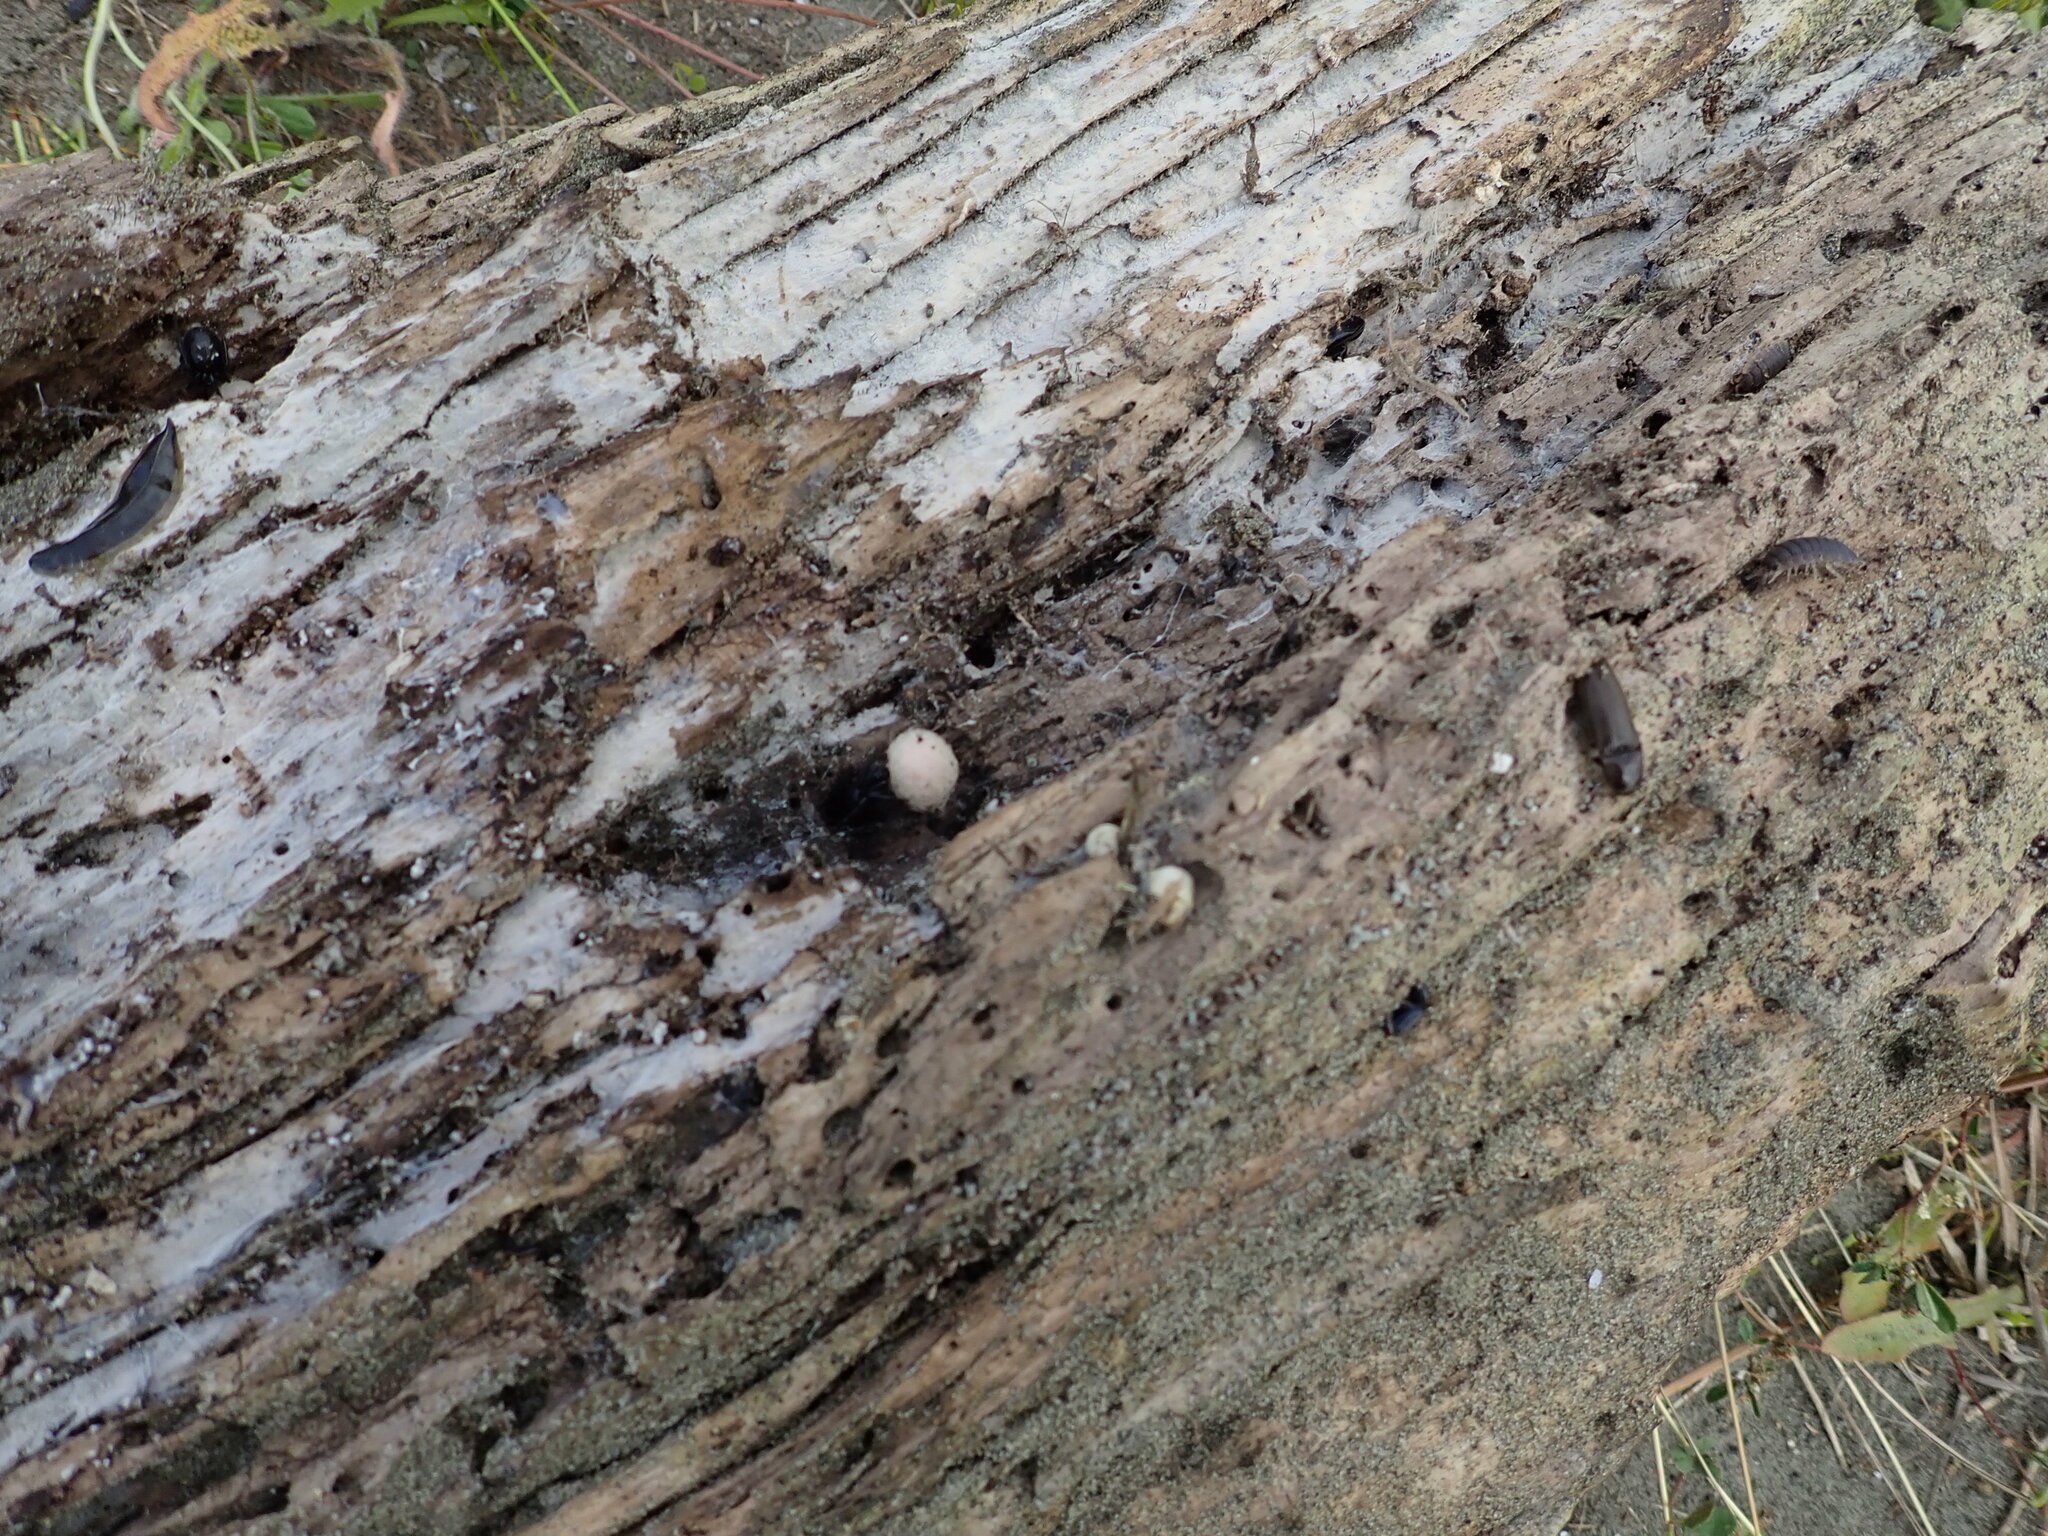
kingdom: Animalia
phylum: Arthropoda
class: Arachnida
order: Araneae
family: Theridiidae
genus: Steatoda
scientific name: Steatoda capensis
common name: Cobweb weaver
